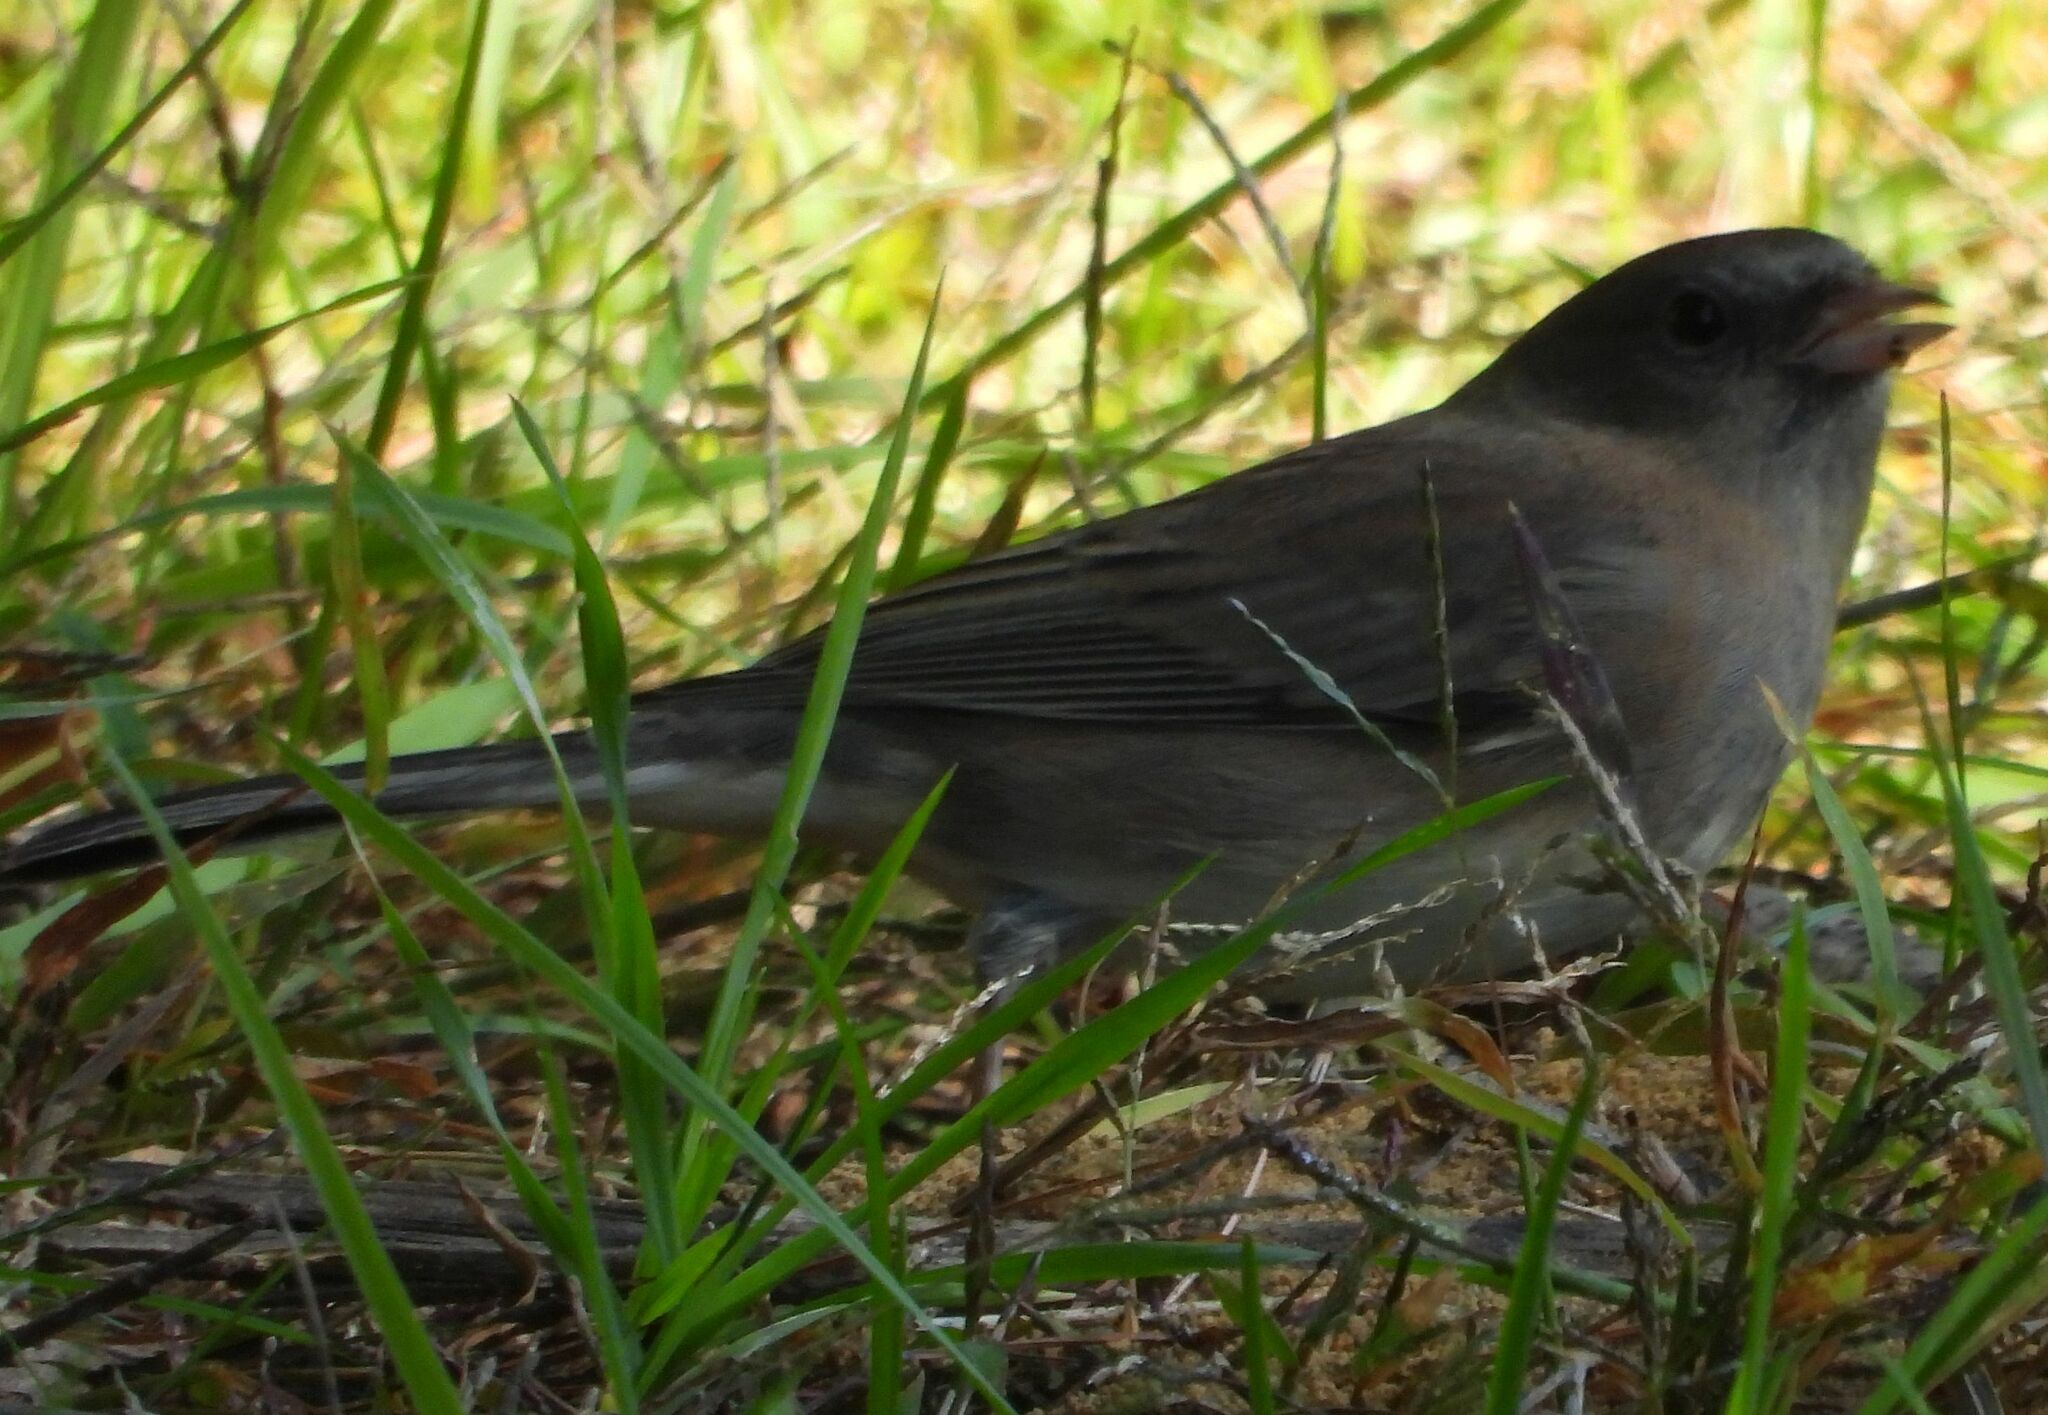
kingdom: Animalia
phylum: Chordata
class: Aves
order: Passeriformes
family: Passerellidae
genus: Junco
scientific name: Junco hyemalis
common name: Dark-eyed junco
